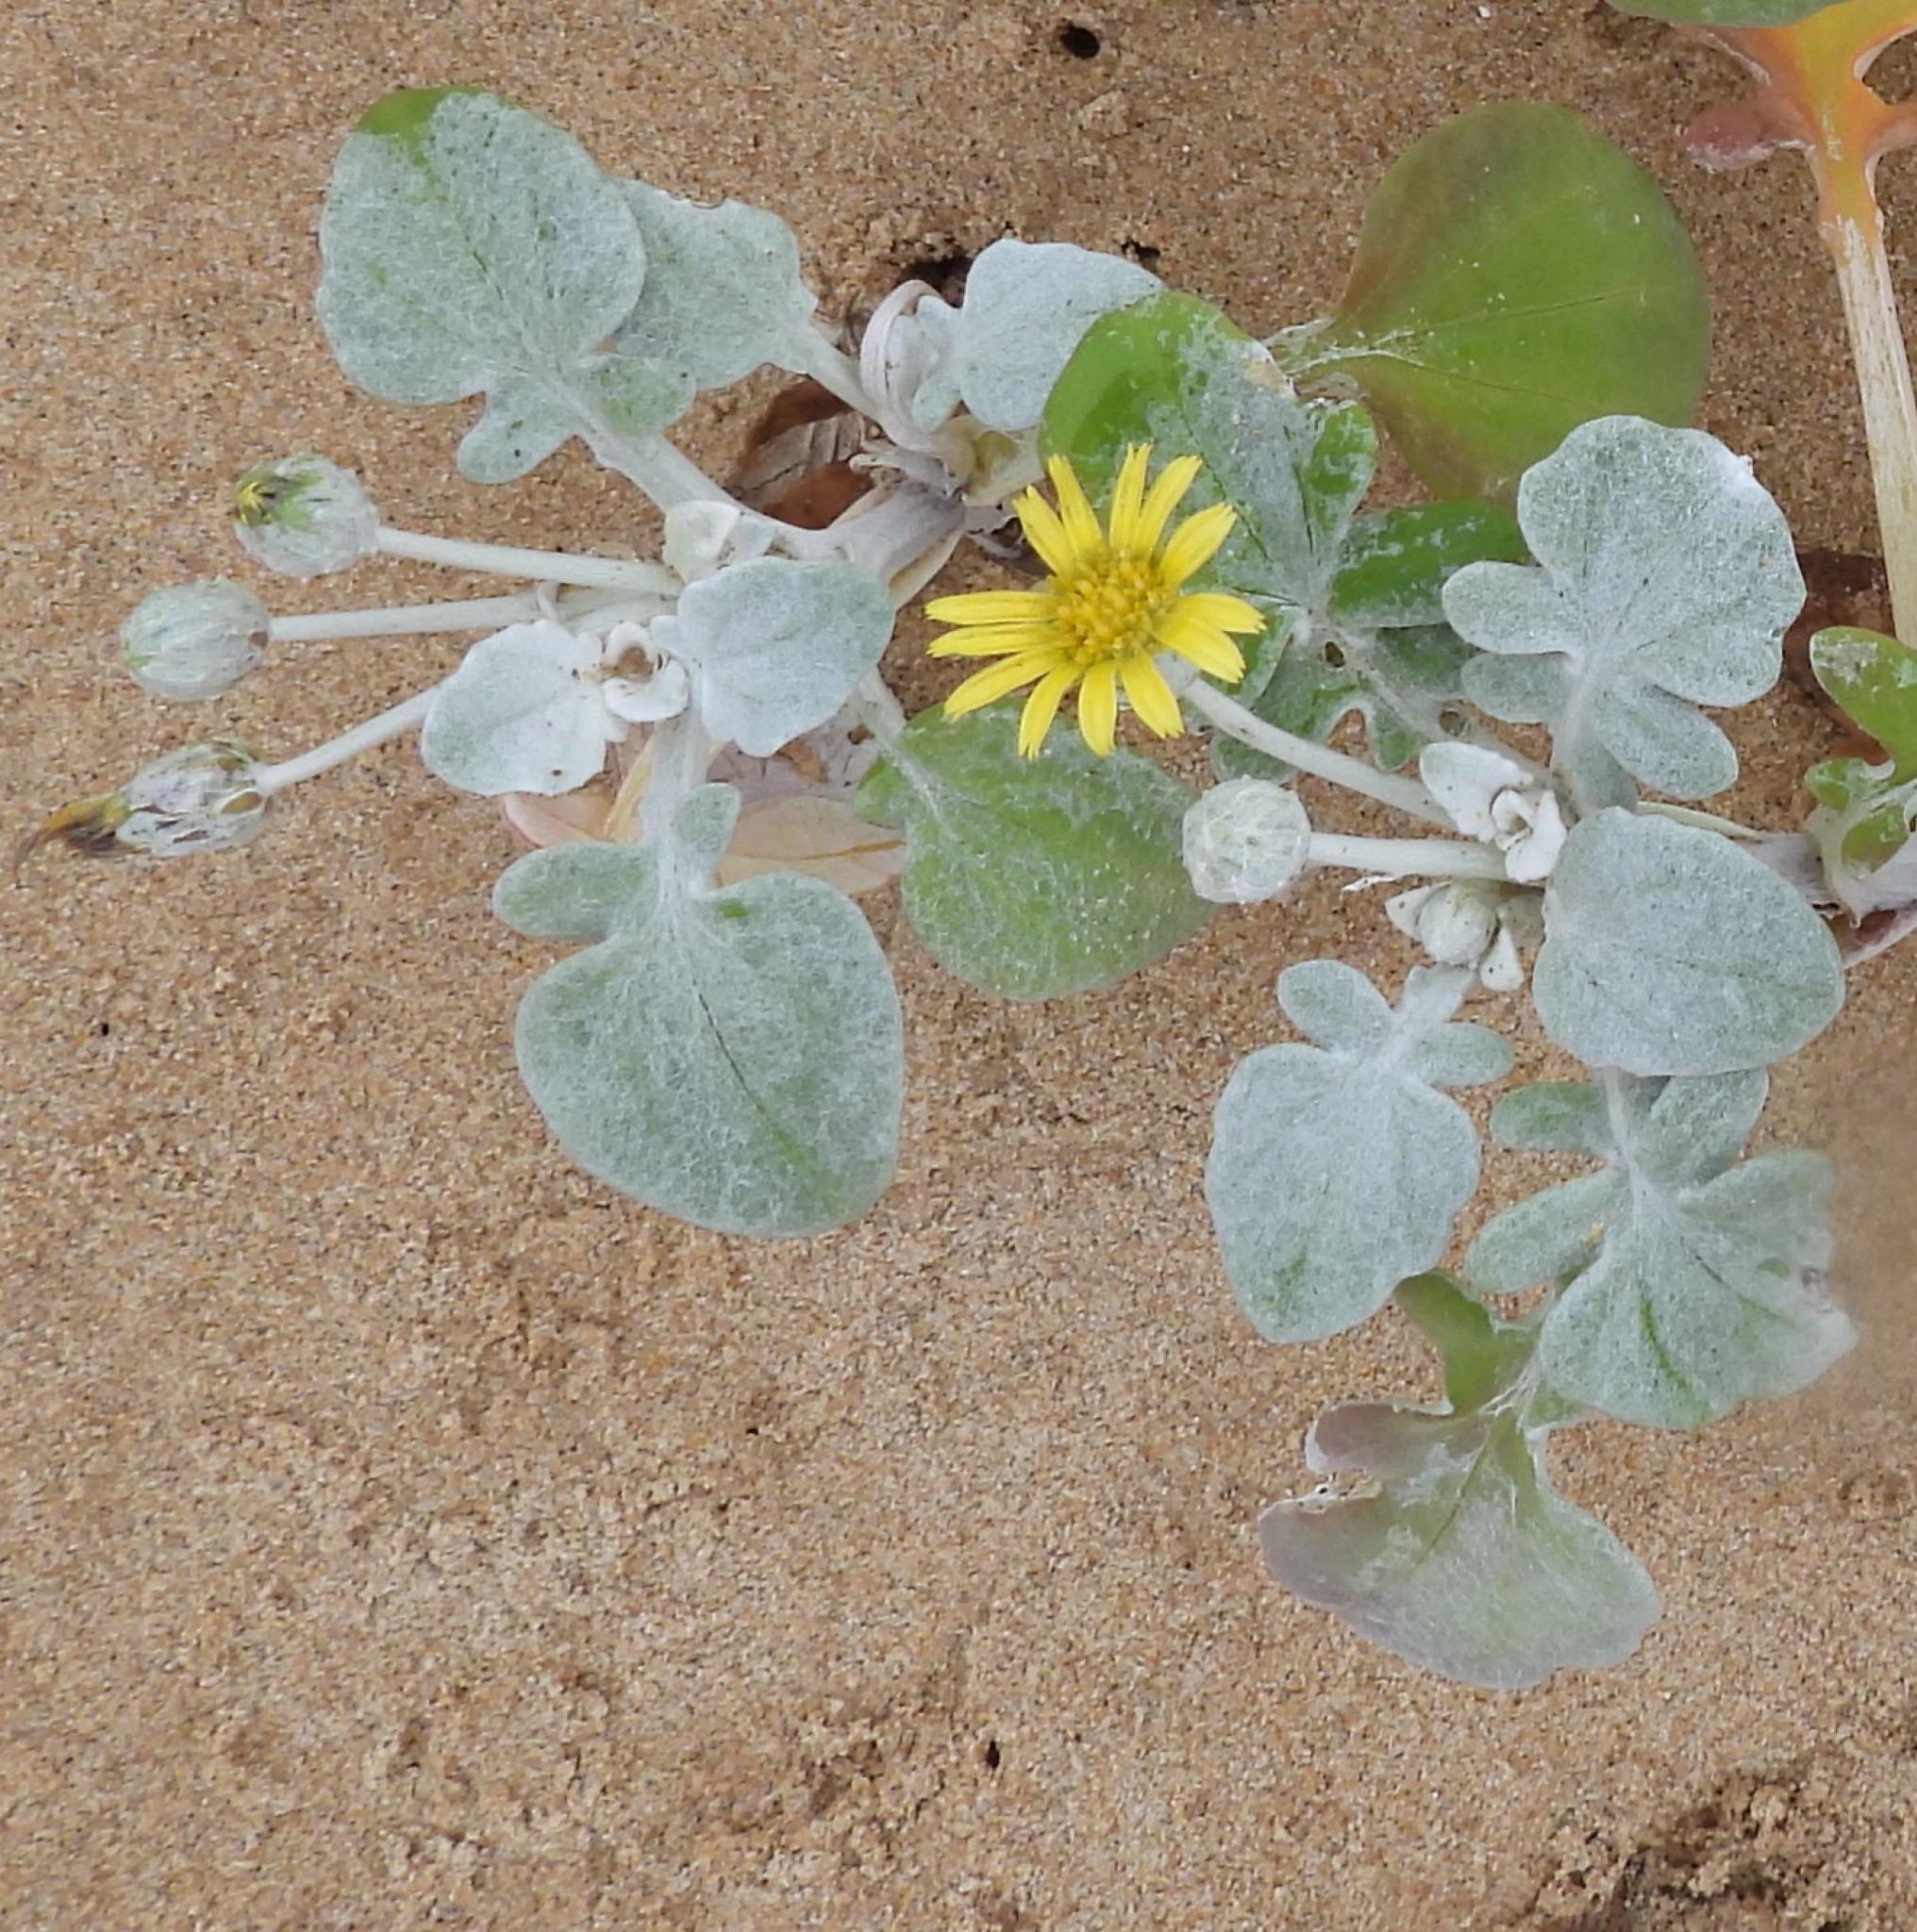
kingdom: Plantae
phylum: Tracheophyta
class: Magnoliopsida
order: Asterales
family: Asteraceae
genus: Arctotheca
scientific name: Arctotheca populifolia
